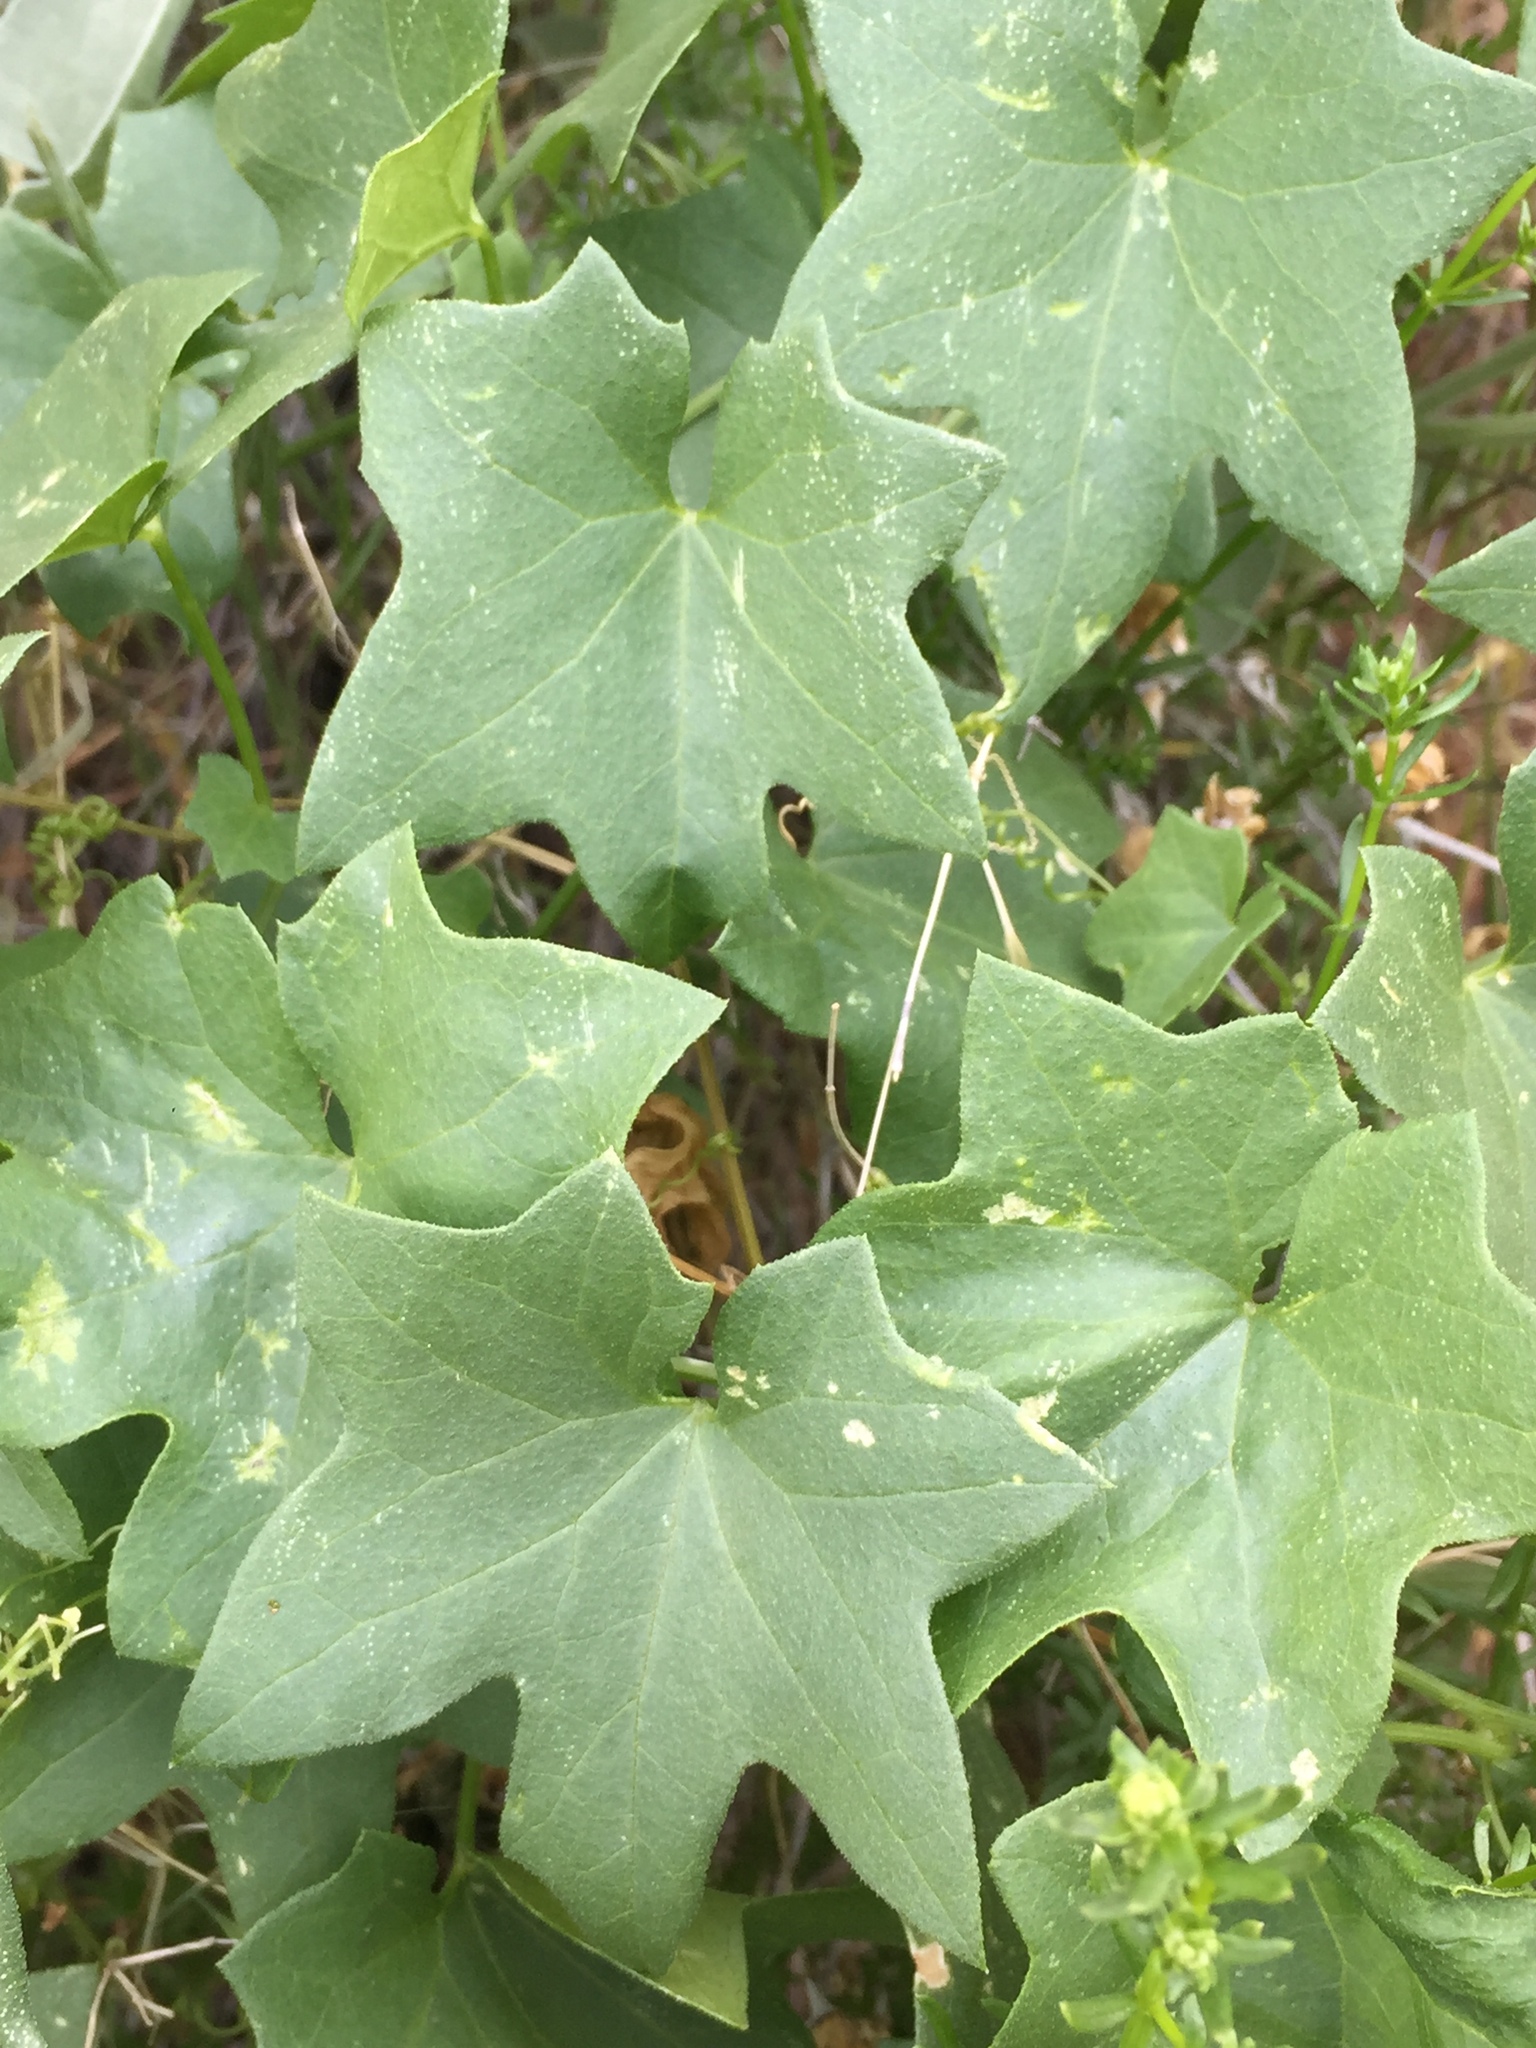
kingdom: Plantae
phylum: Tracheophyta
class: Magnoliopsida
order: Cucurbitales
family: Cucurbitaceae
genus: Marah
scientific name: Marah
